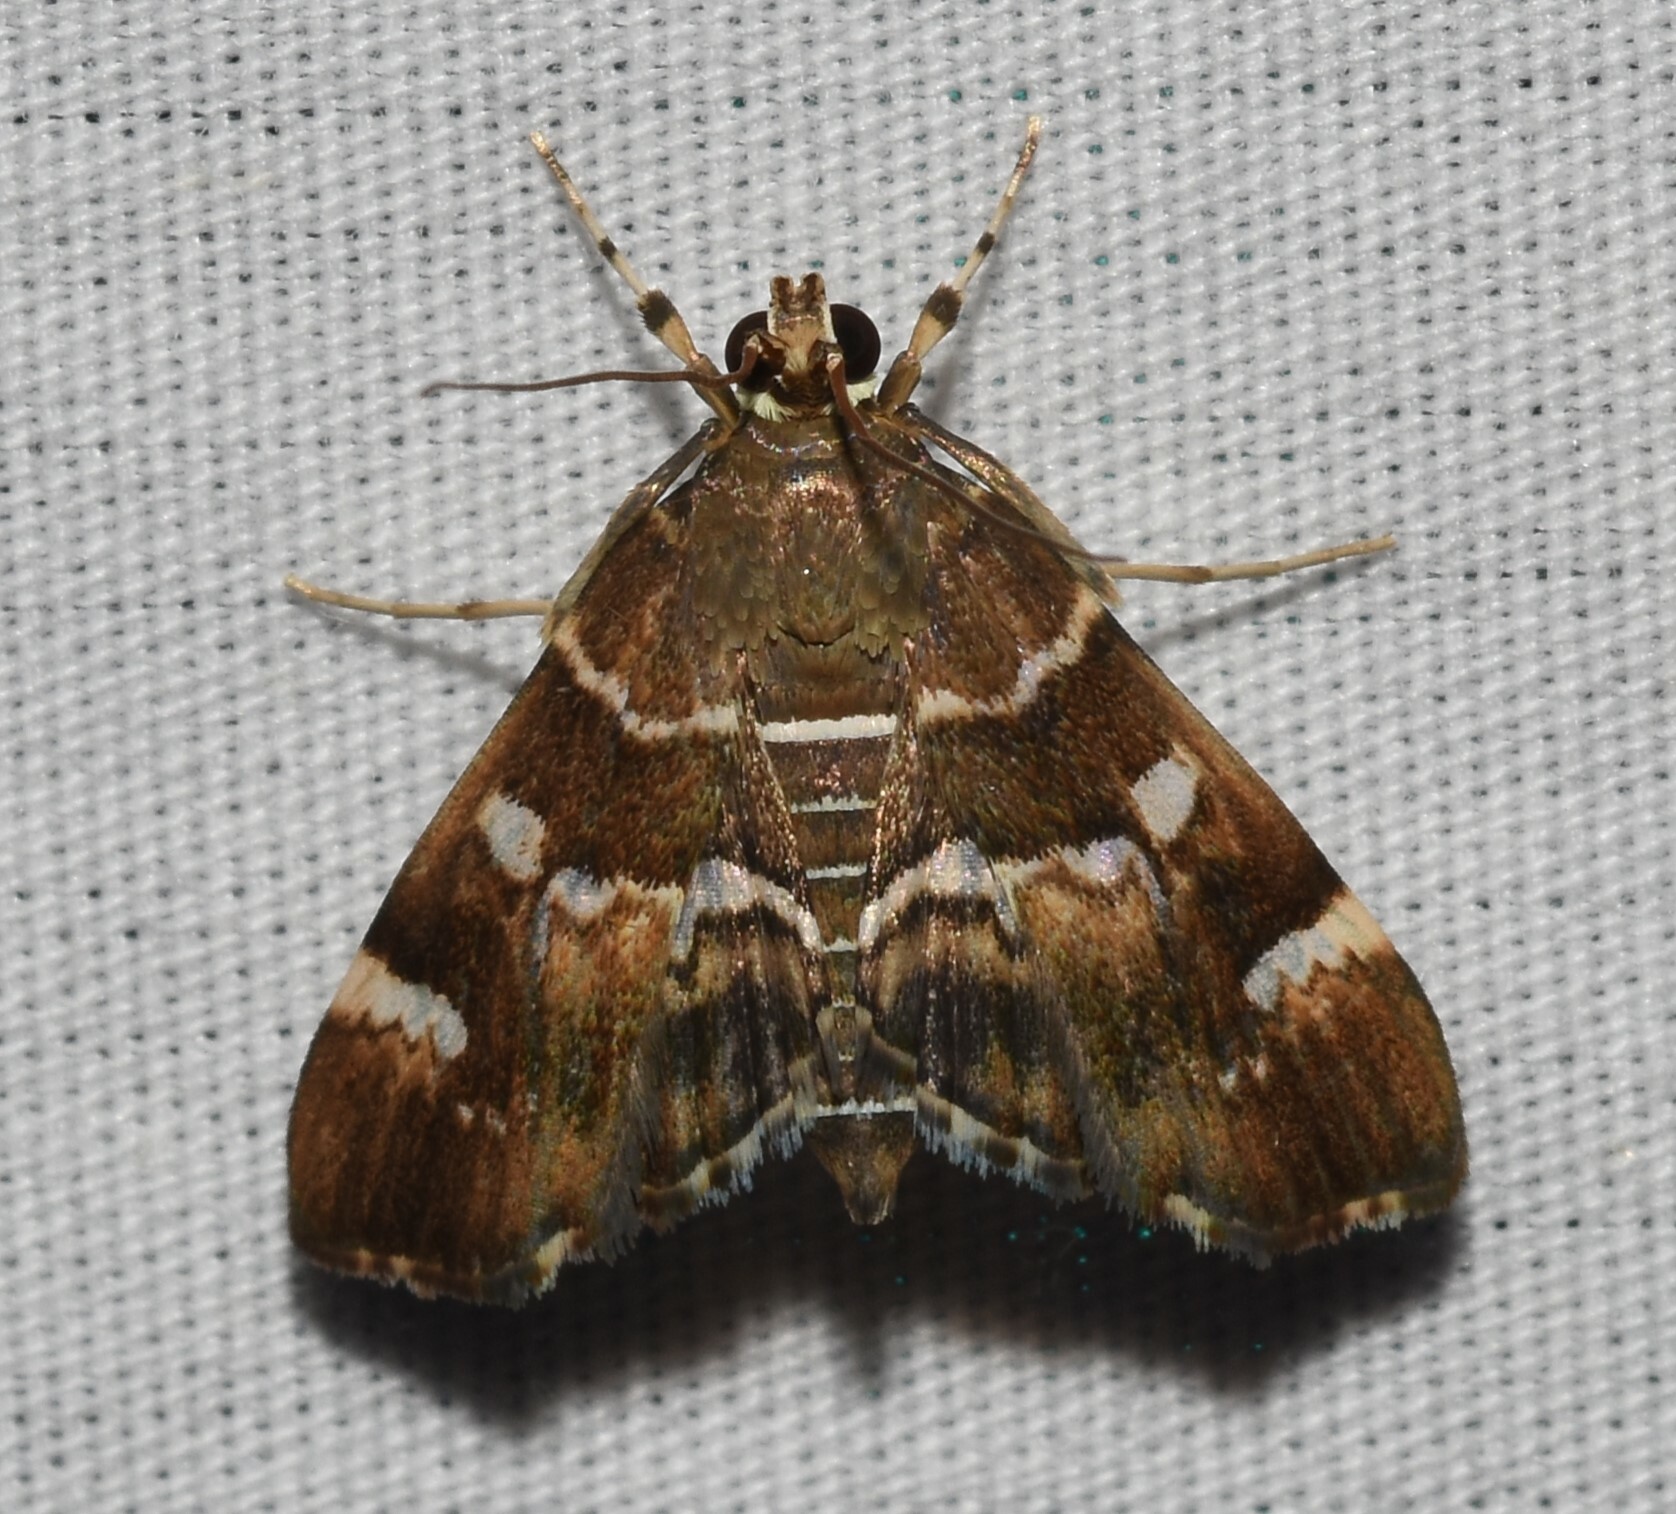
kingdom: Animalia
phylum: Arthropoda
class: Insecta
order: Lepidoptera
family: Crambidae
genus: Hymenia
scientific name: Hymenia perspectalis
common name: Spotted beet webworm
